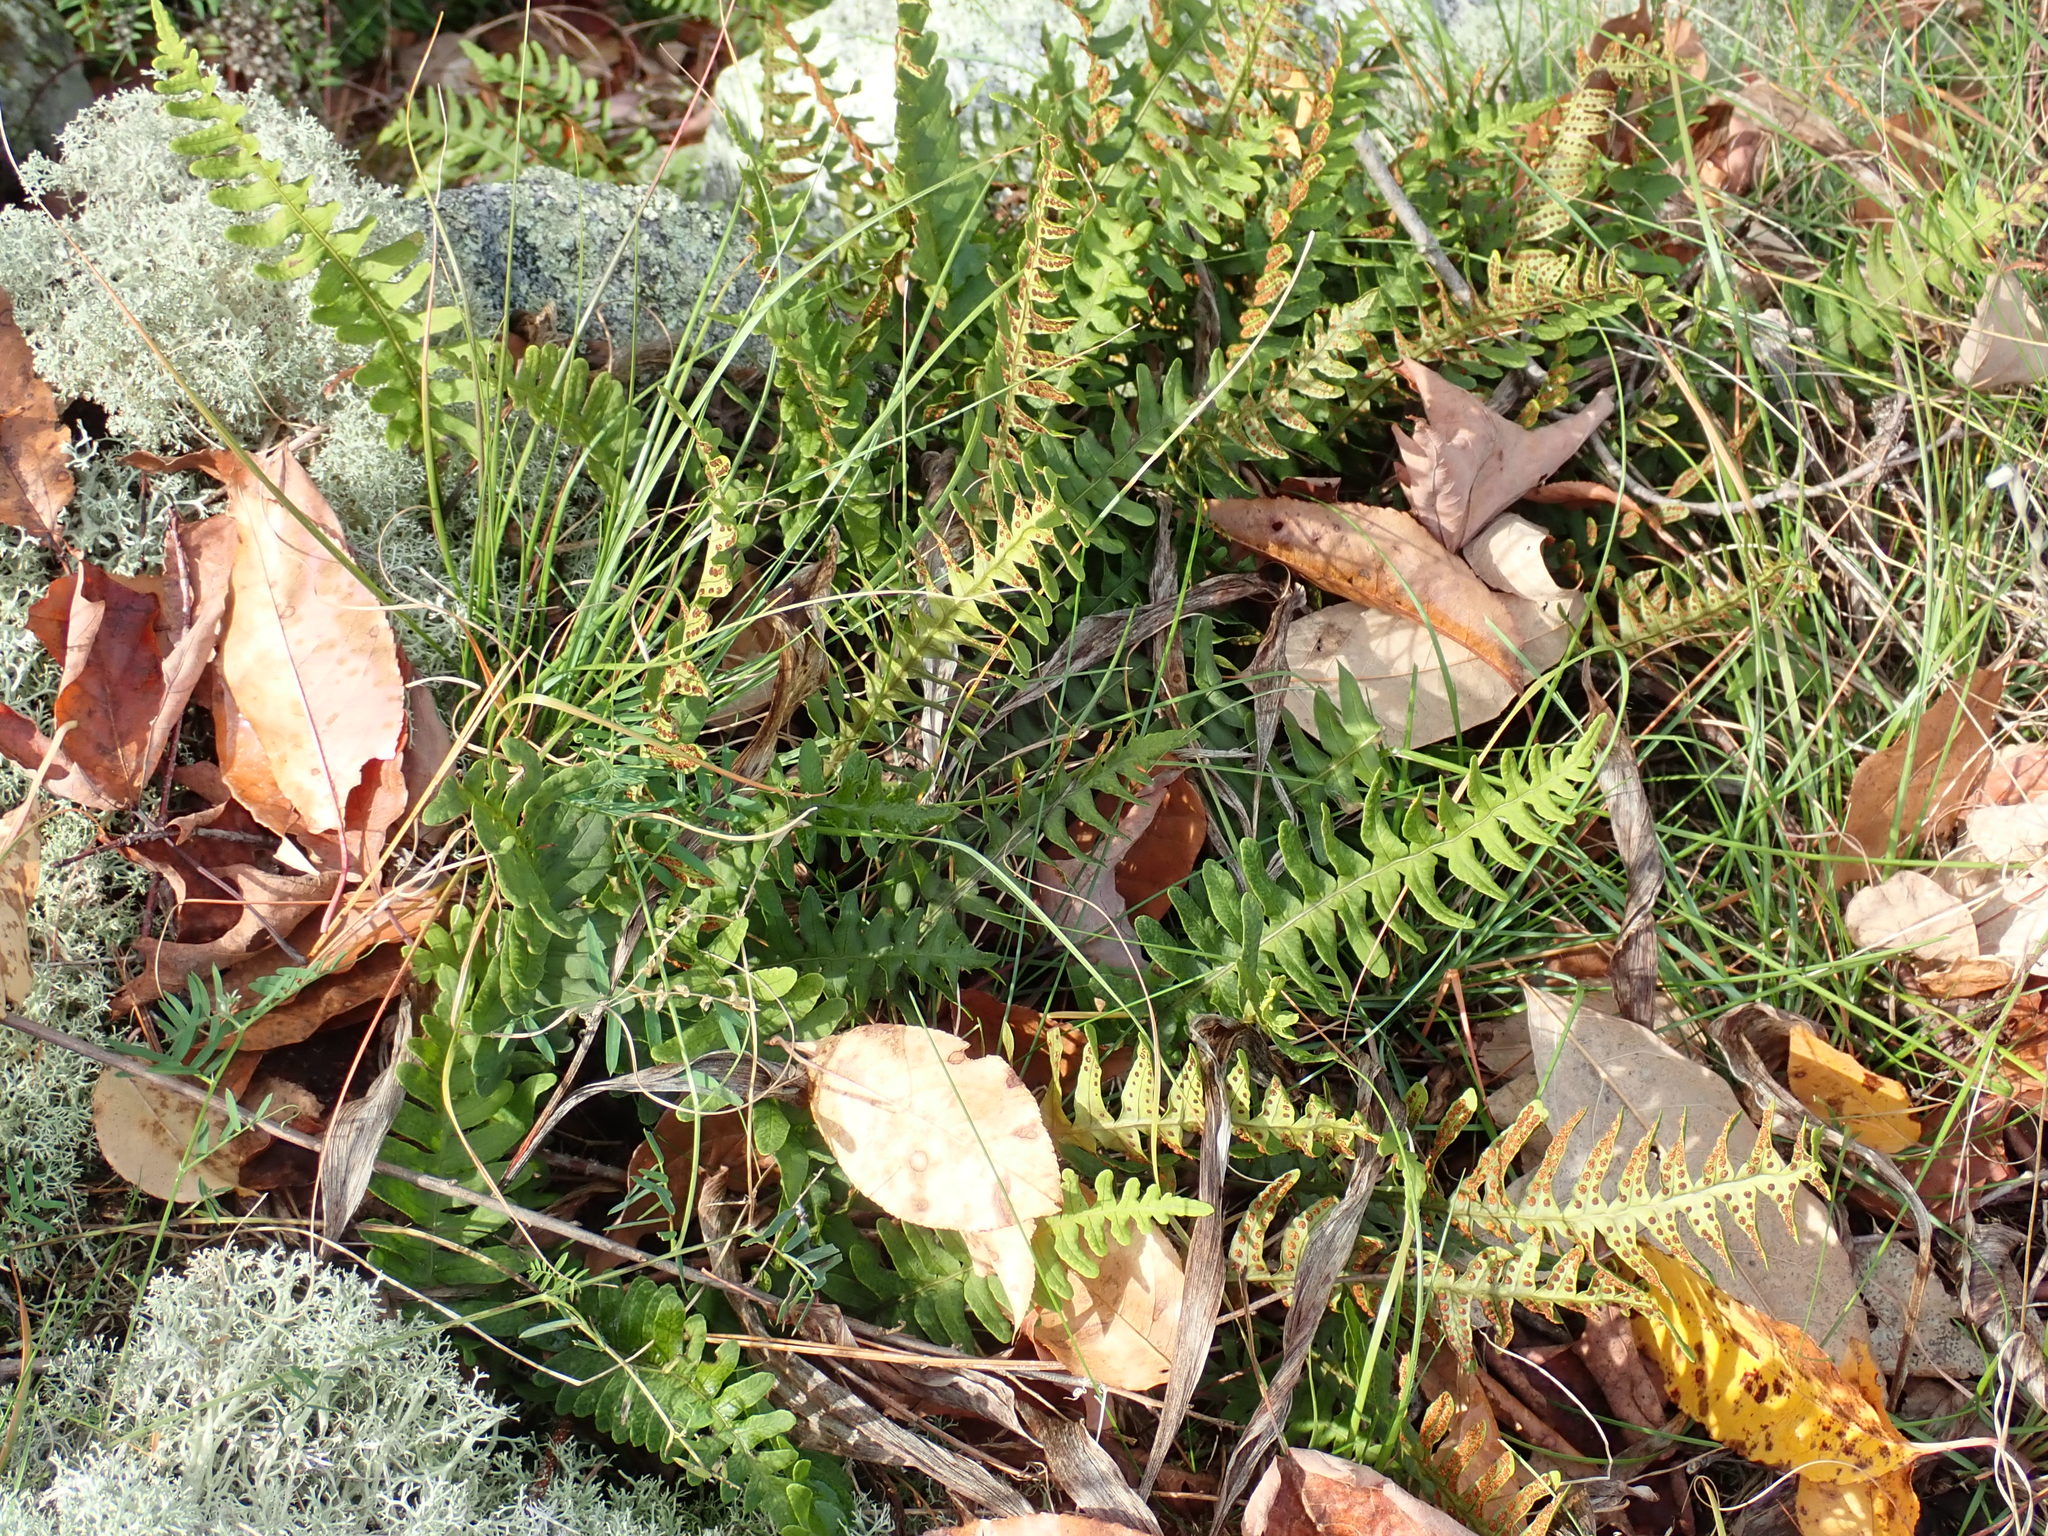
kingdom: Plantae
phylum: Tracheophyta
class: Polypodiopsida
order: Polypodiales
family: Polypodiaceae
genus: Polypodium
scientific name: Polypodium
